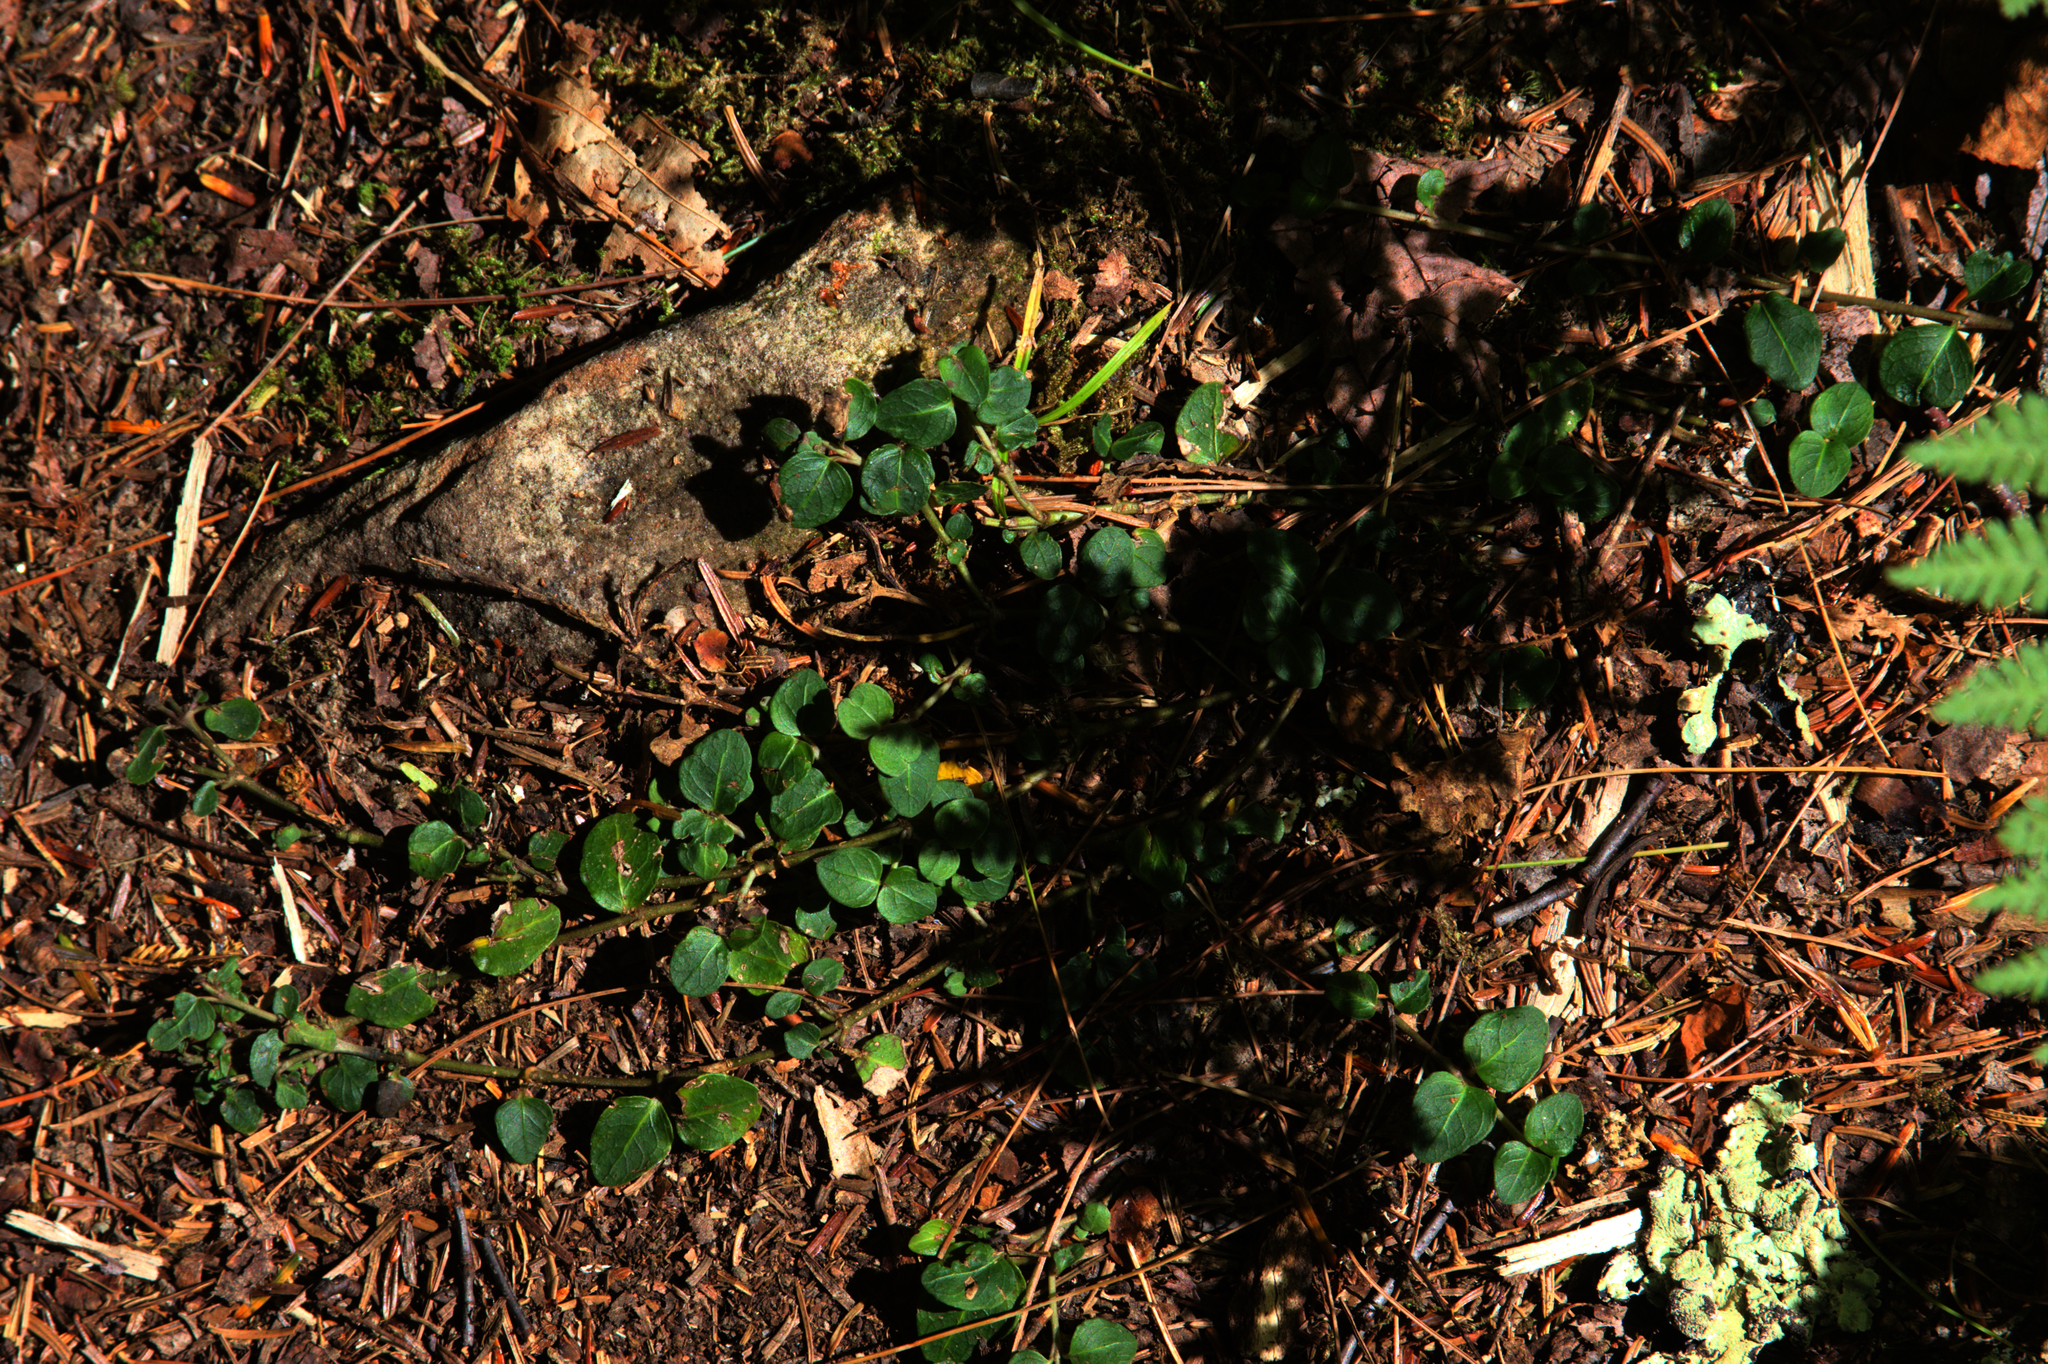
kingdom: Plantae
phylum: Tracheophyta
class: Magnoliopsida
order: Gentianales
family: Rubiaceae
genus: Mitchella
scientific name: Mitchella repens
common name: Partridge-berry
